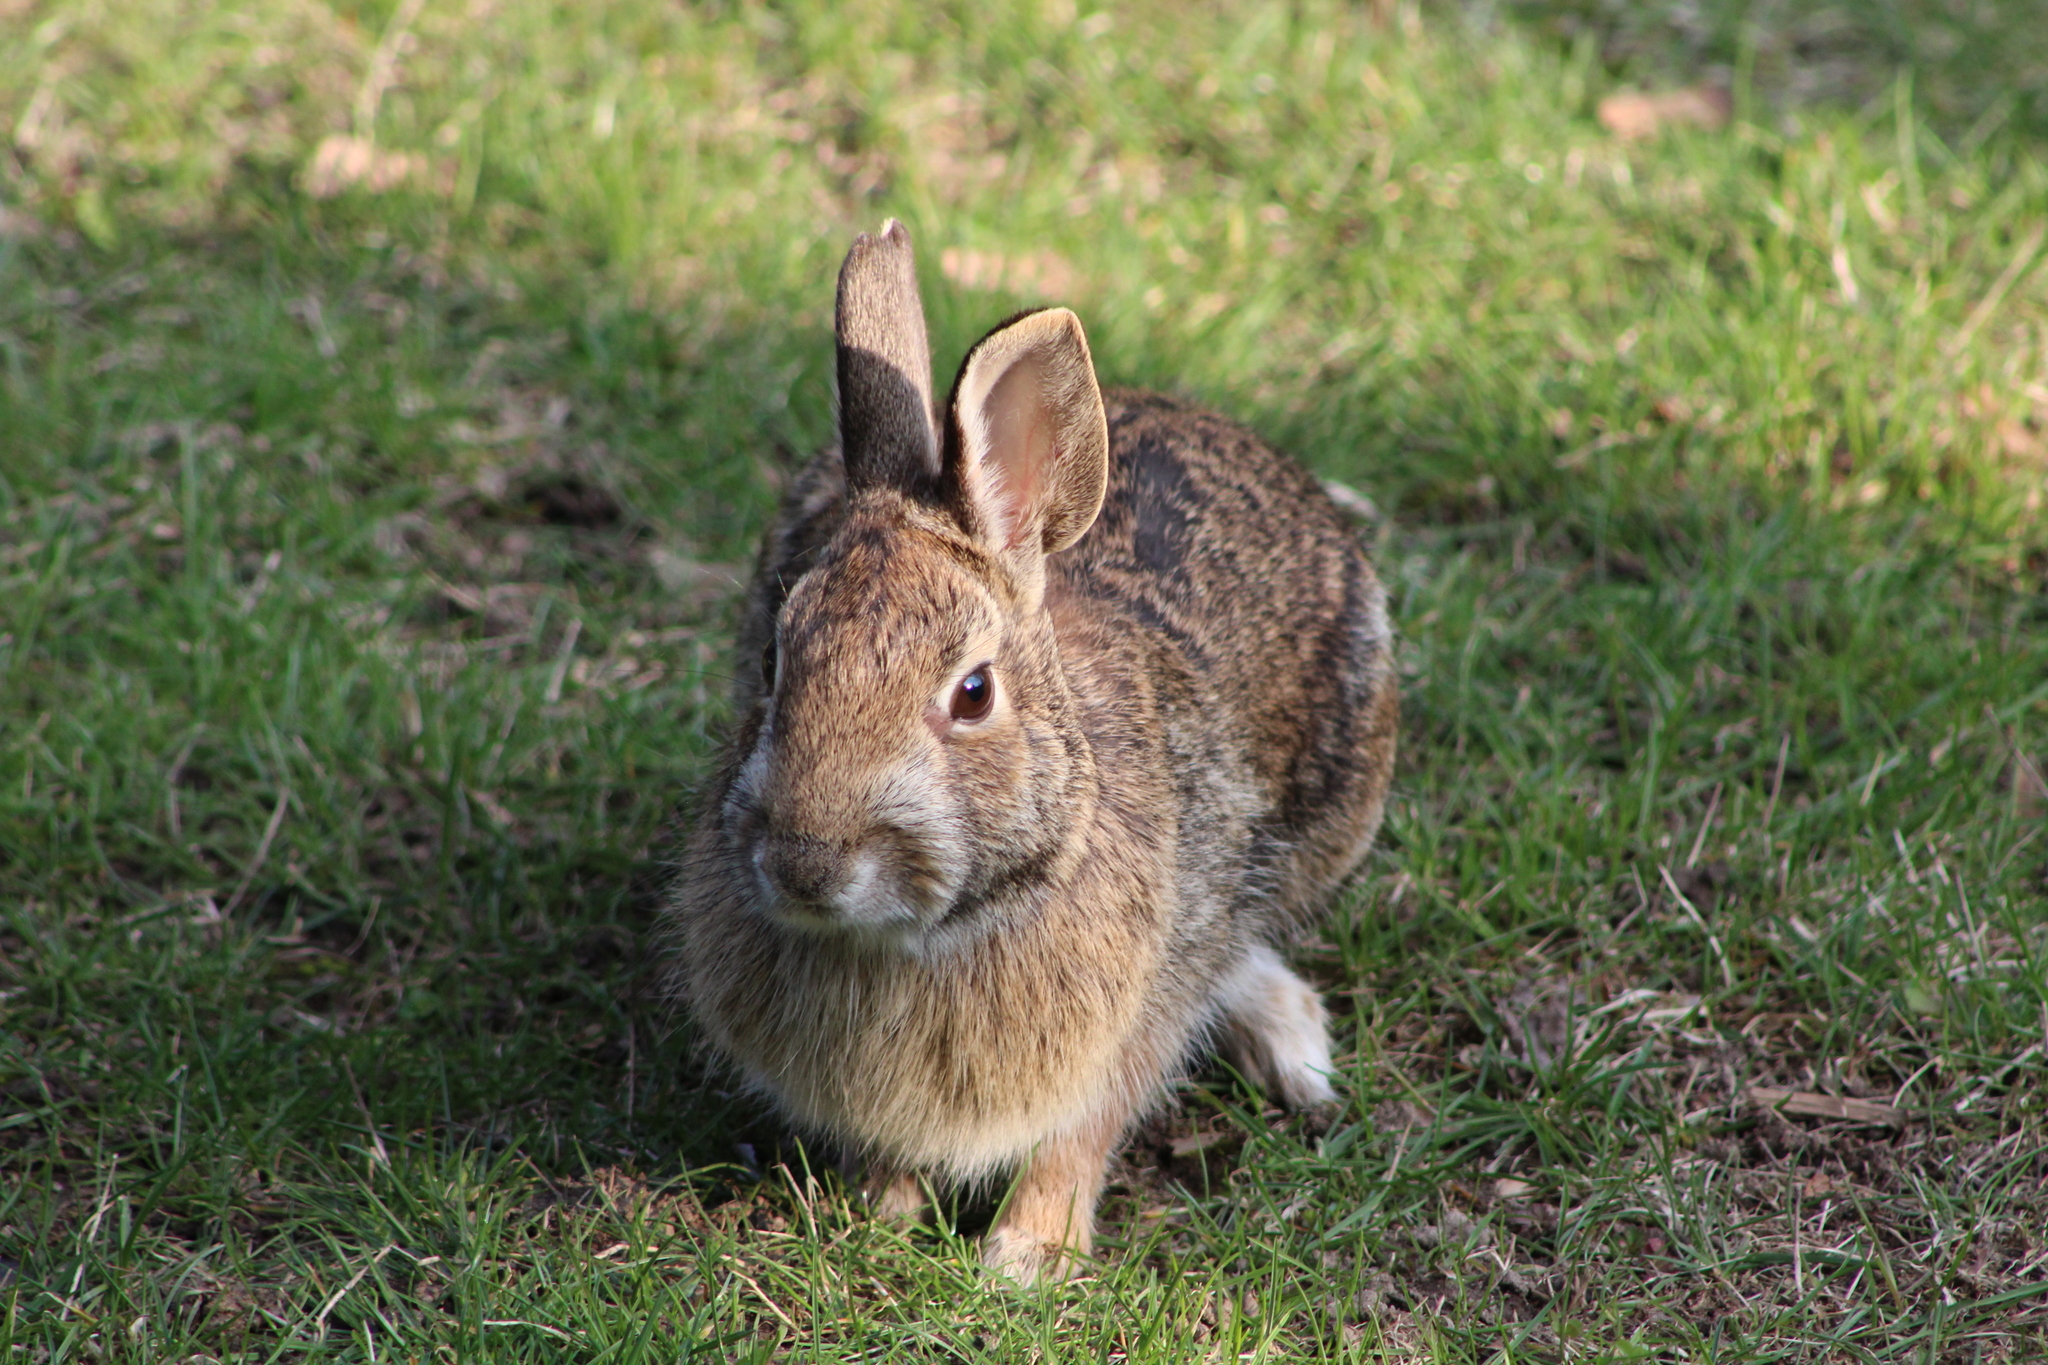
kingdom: Animalia
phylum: Chordata
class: Mammalia
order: Lagomorpha
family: Leporidae
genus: Sylvilagus
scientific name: Sylvilagus floridanus
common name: Eastern cottontail
